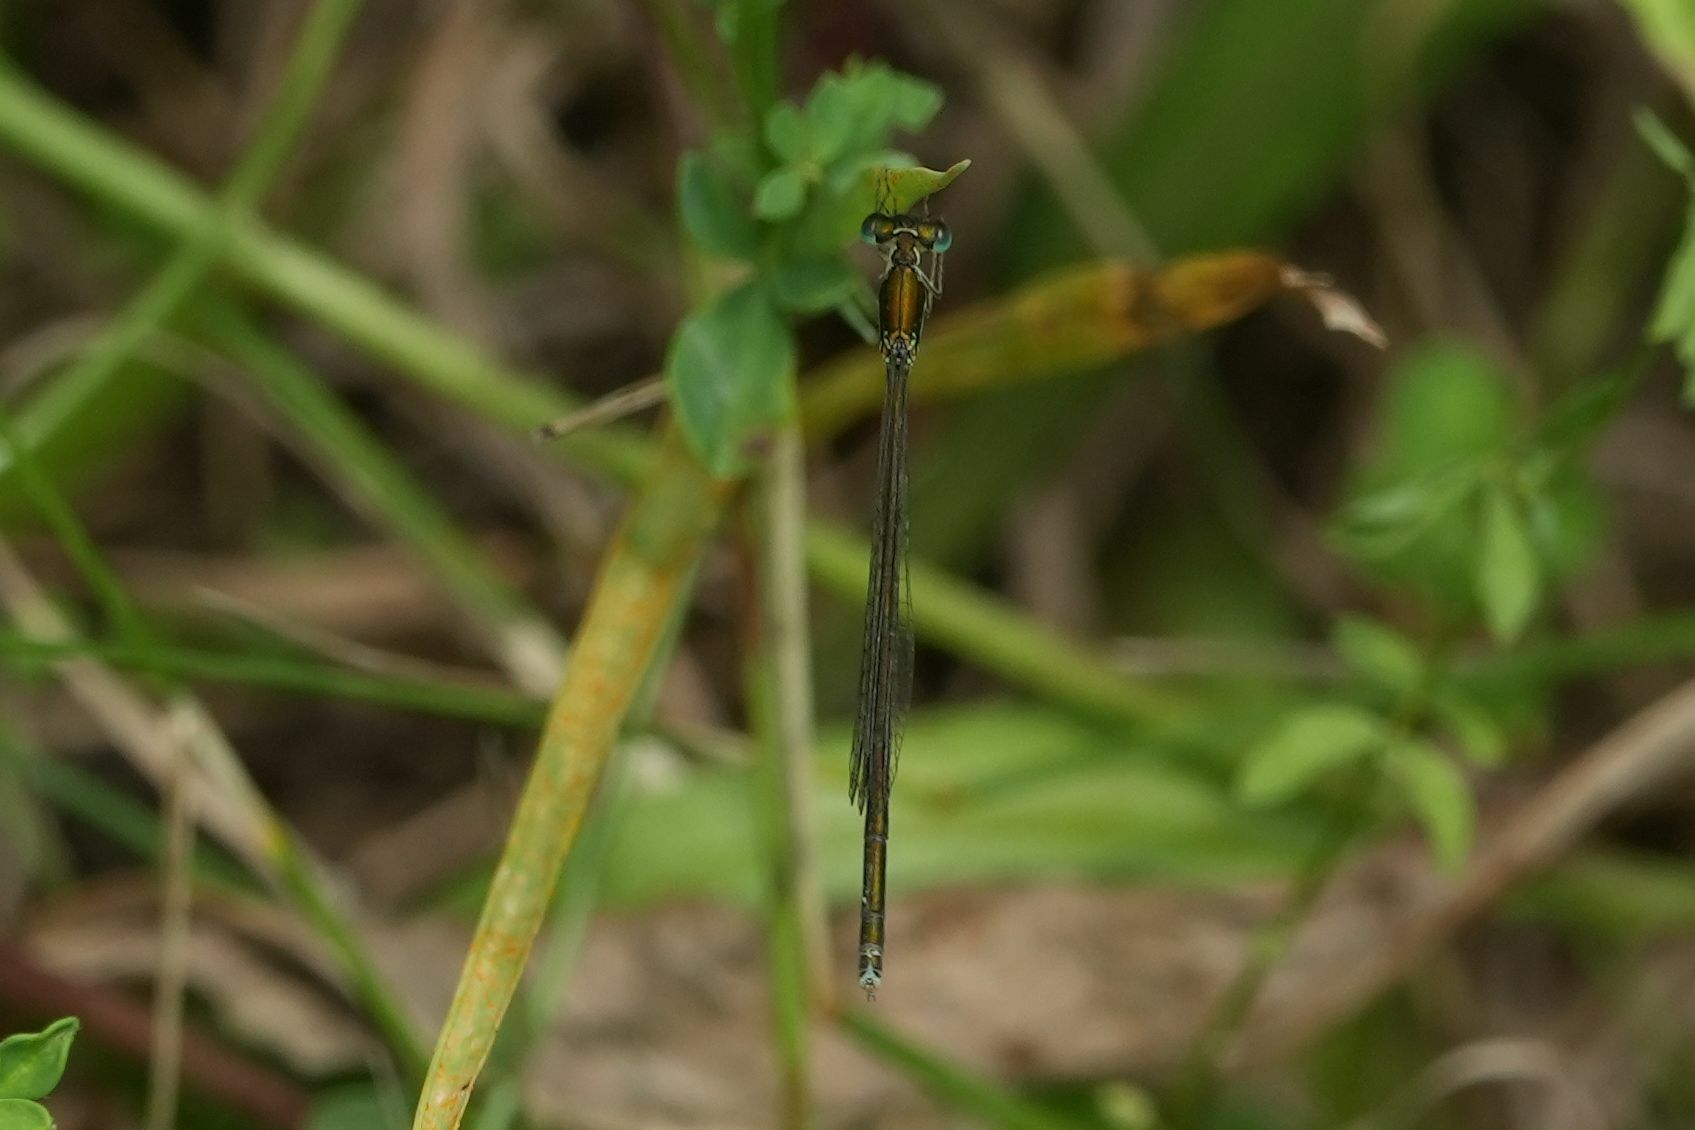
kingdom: Animalia
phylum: Arthropoda
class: Insecta
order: Odonata
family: Coenagrionidae
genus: Nehalennia
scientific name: Nehalennia irene
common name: Sedge sprite
